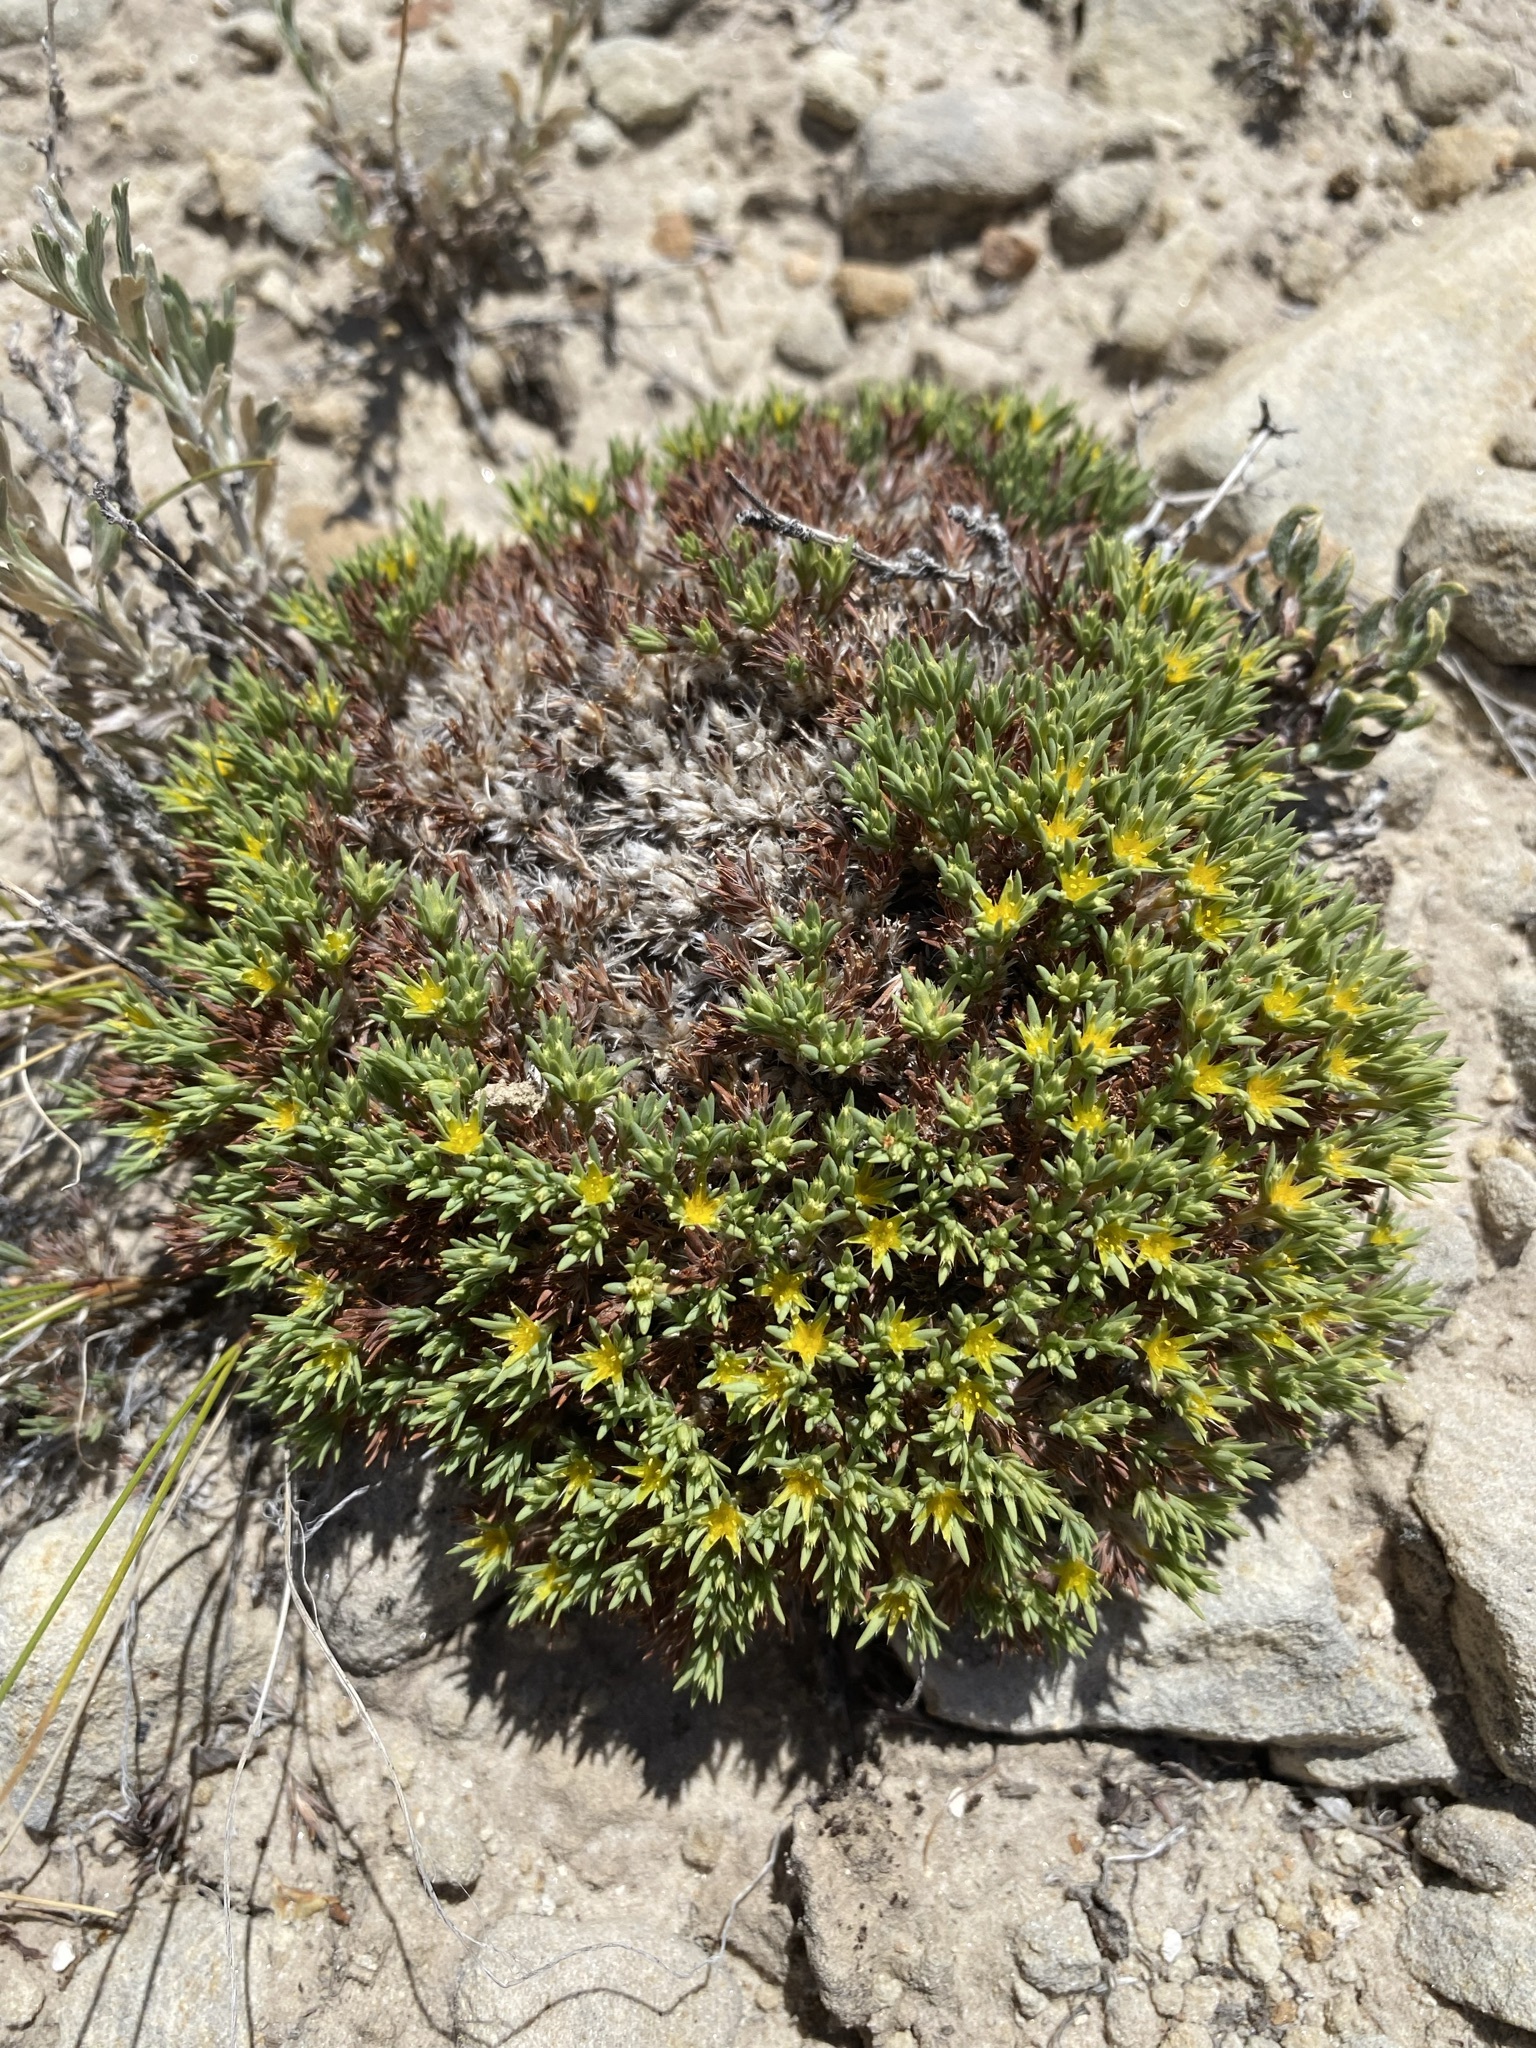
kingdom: Plantae
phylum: Tracheophyta
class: Magnoliopsida
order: Caryophyllales
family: Caryophyllaceae
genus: Paronychia
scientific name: Paronychia sessiliflora
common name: Creeping nailwort
